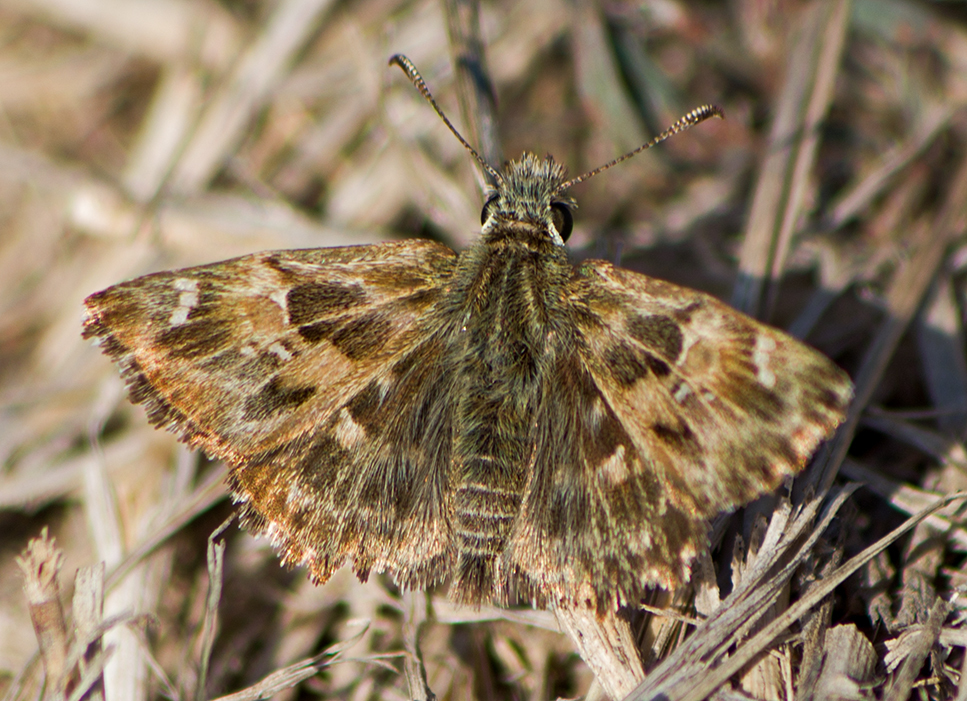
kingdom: Animalia
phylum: Arthropoda
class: Insecta
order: Lepidoptera
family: Hesperiidae
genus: Carcharodus
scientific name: Carcharodus alceae
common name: Mallow skipper
